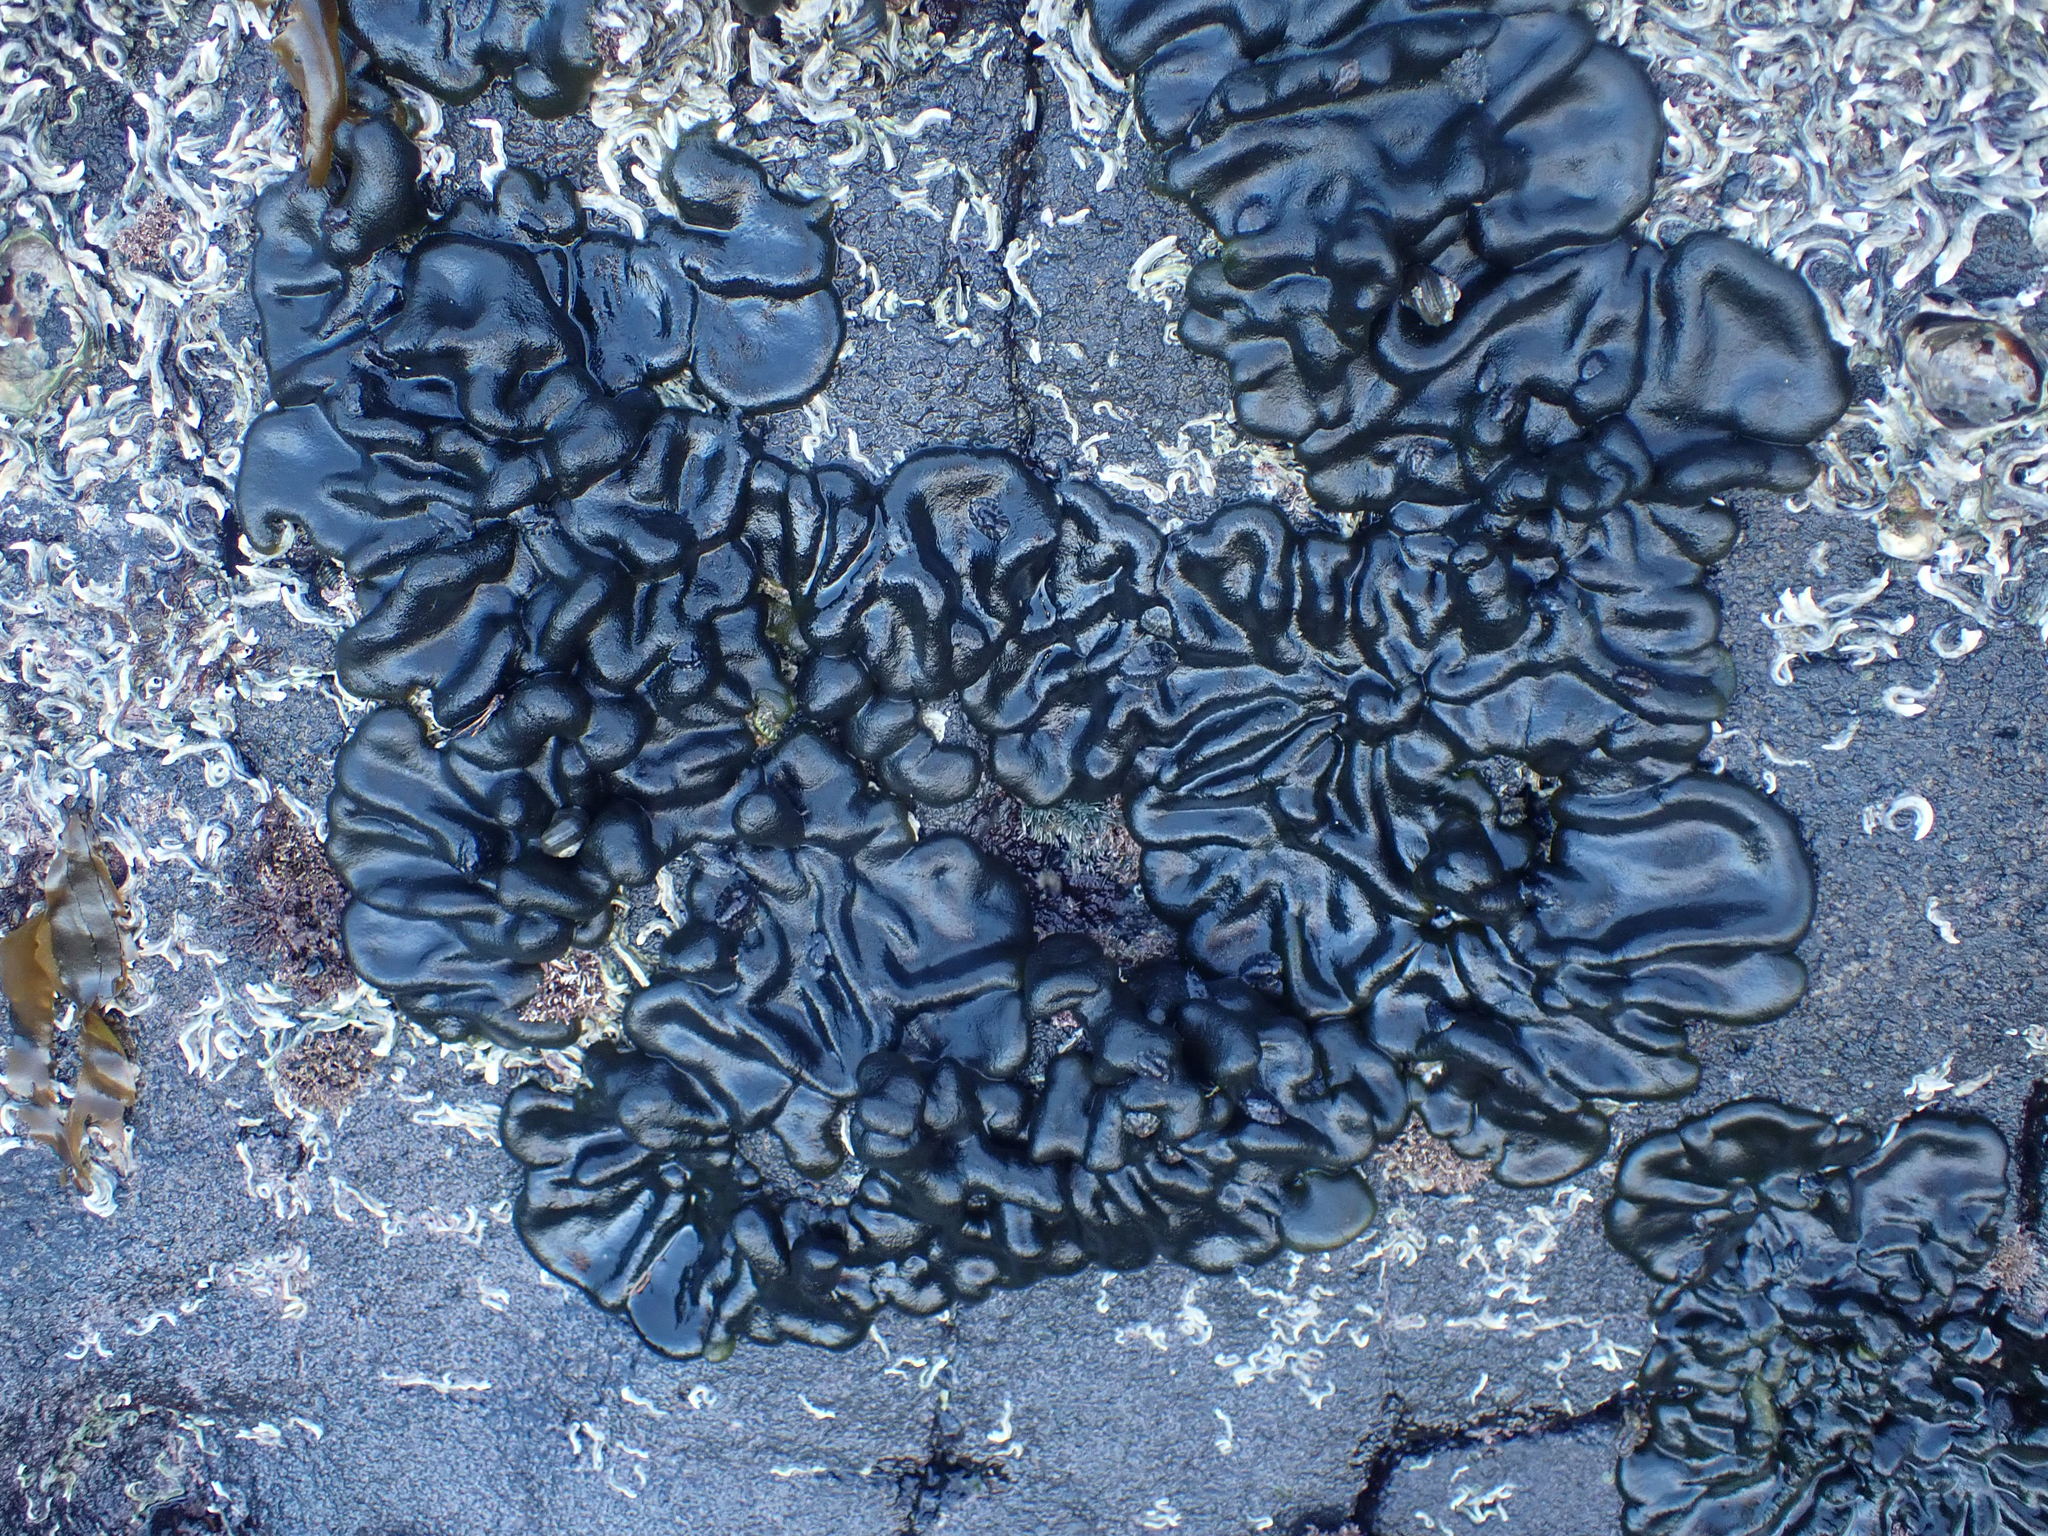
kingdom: Plantae
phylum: Chlorophyta
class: Ulvophyceae
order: Bryopsidales
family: Codiaceae
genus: Codium
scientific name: Codium convolutum
